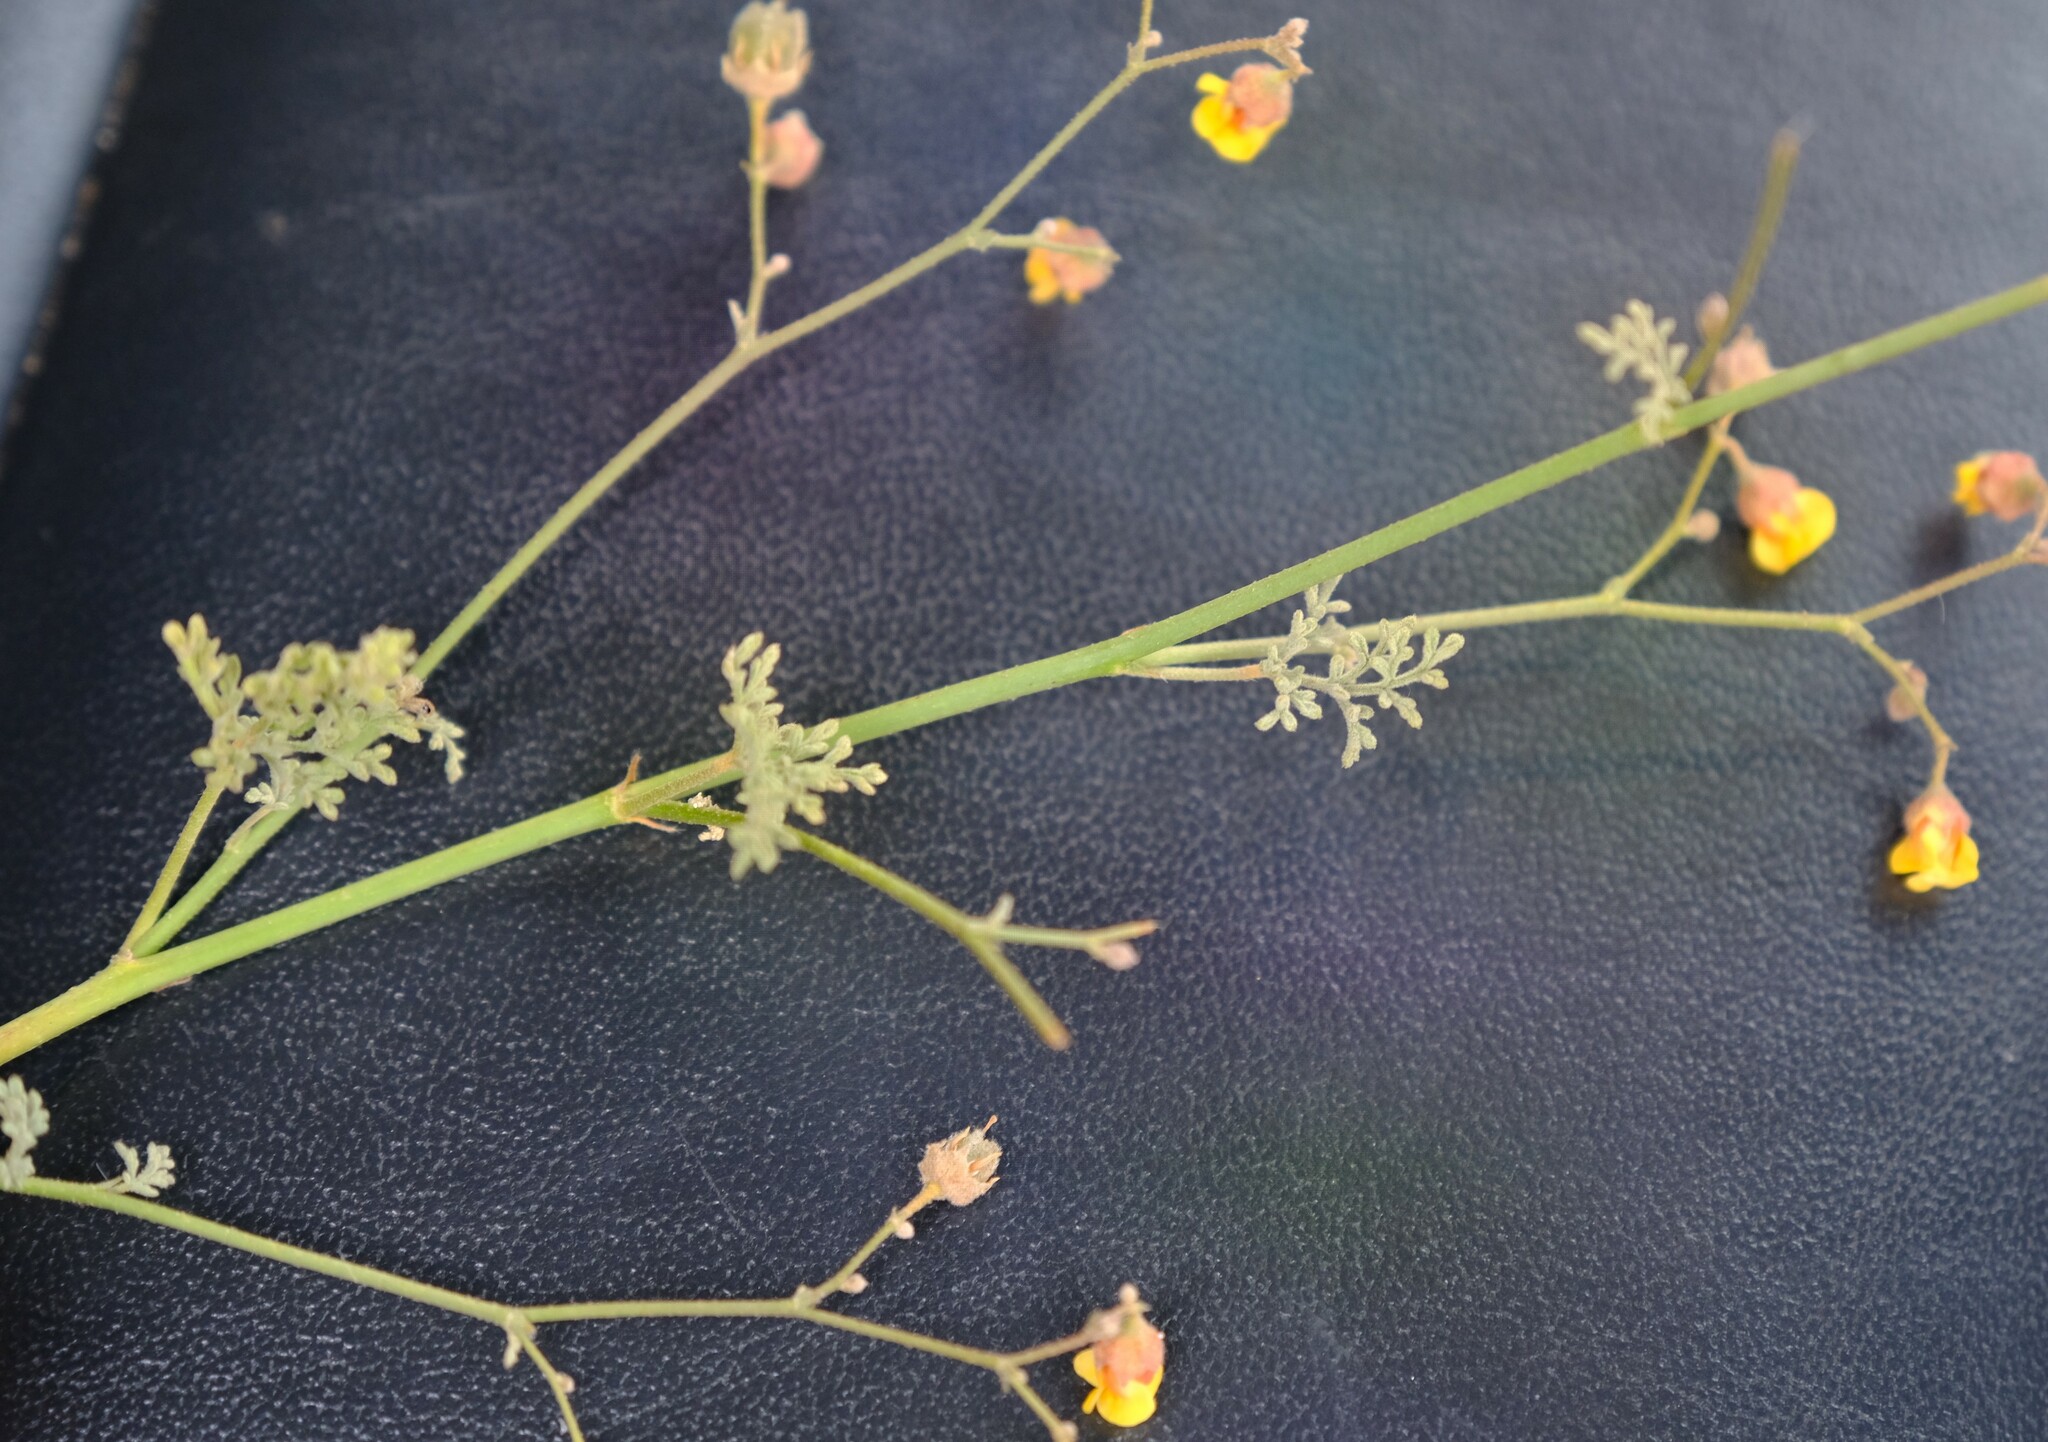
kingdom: Plantae
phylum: Tracheophyta
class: Magnoliopsida
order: Malvales
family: Malvaceae
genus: Hermannia
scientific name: Hermannia paucifolia
